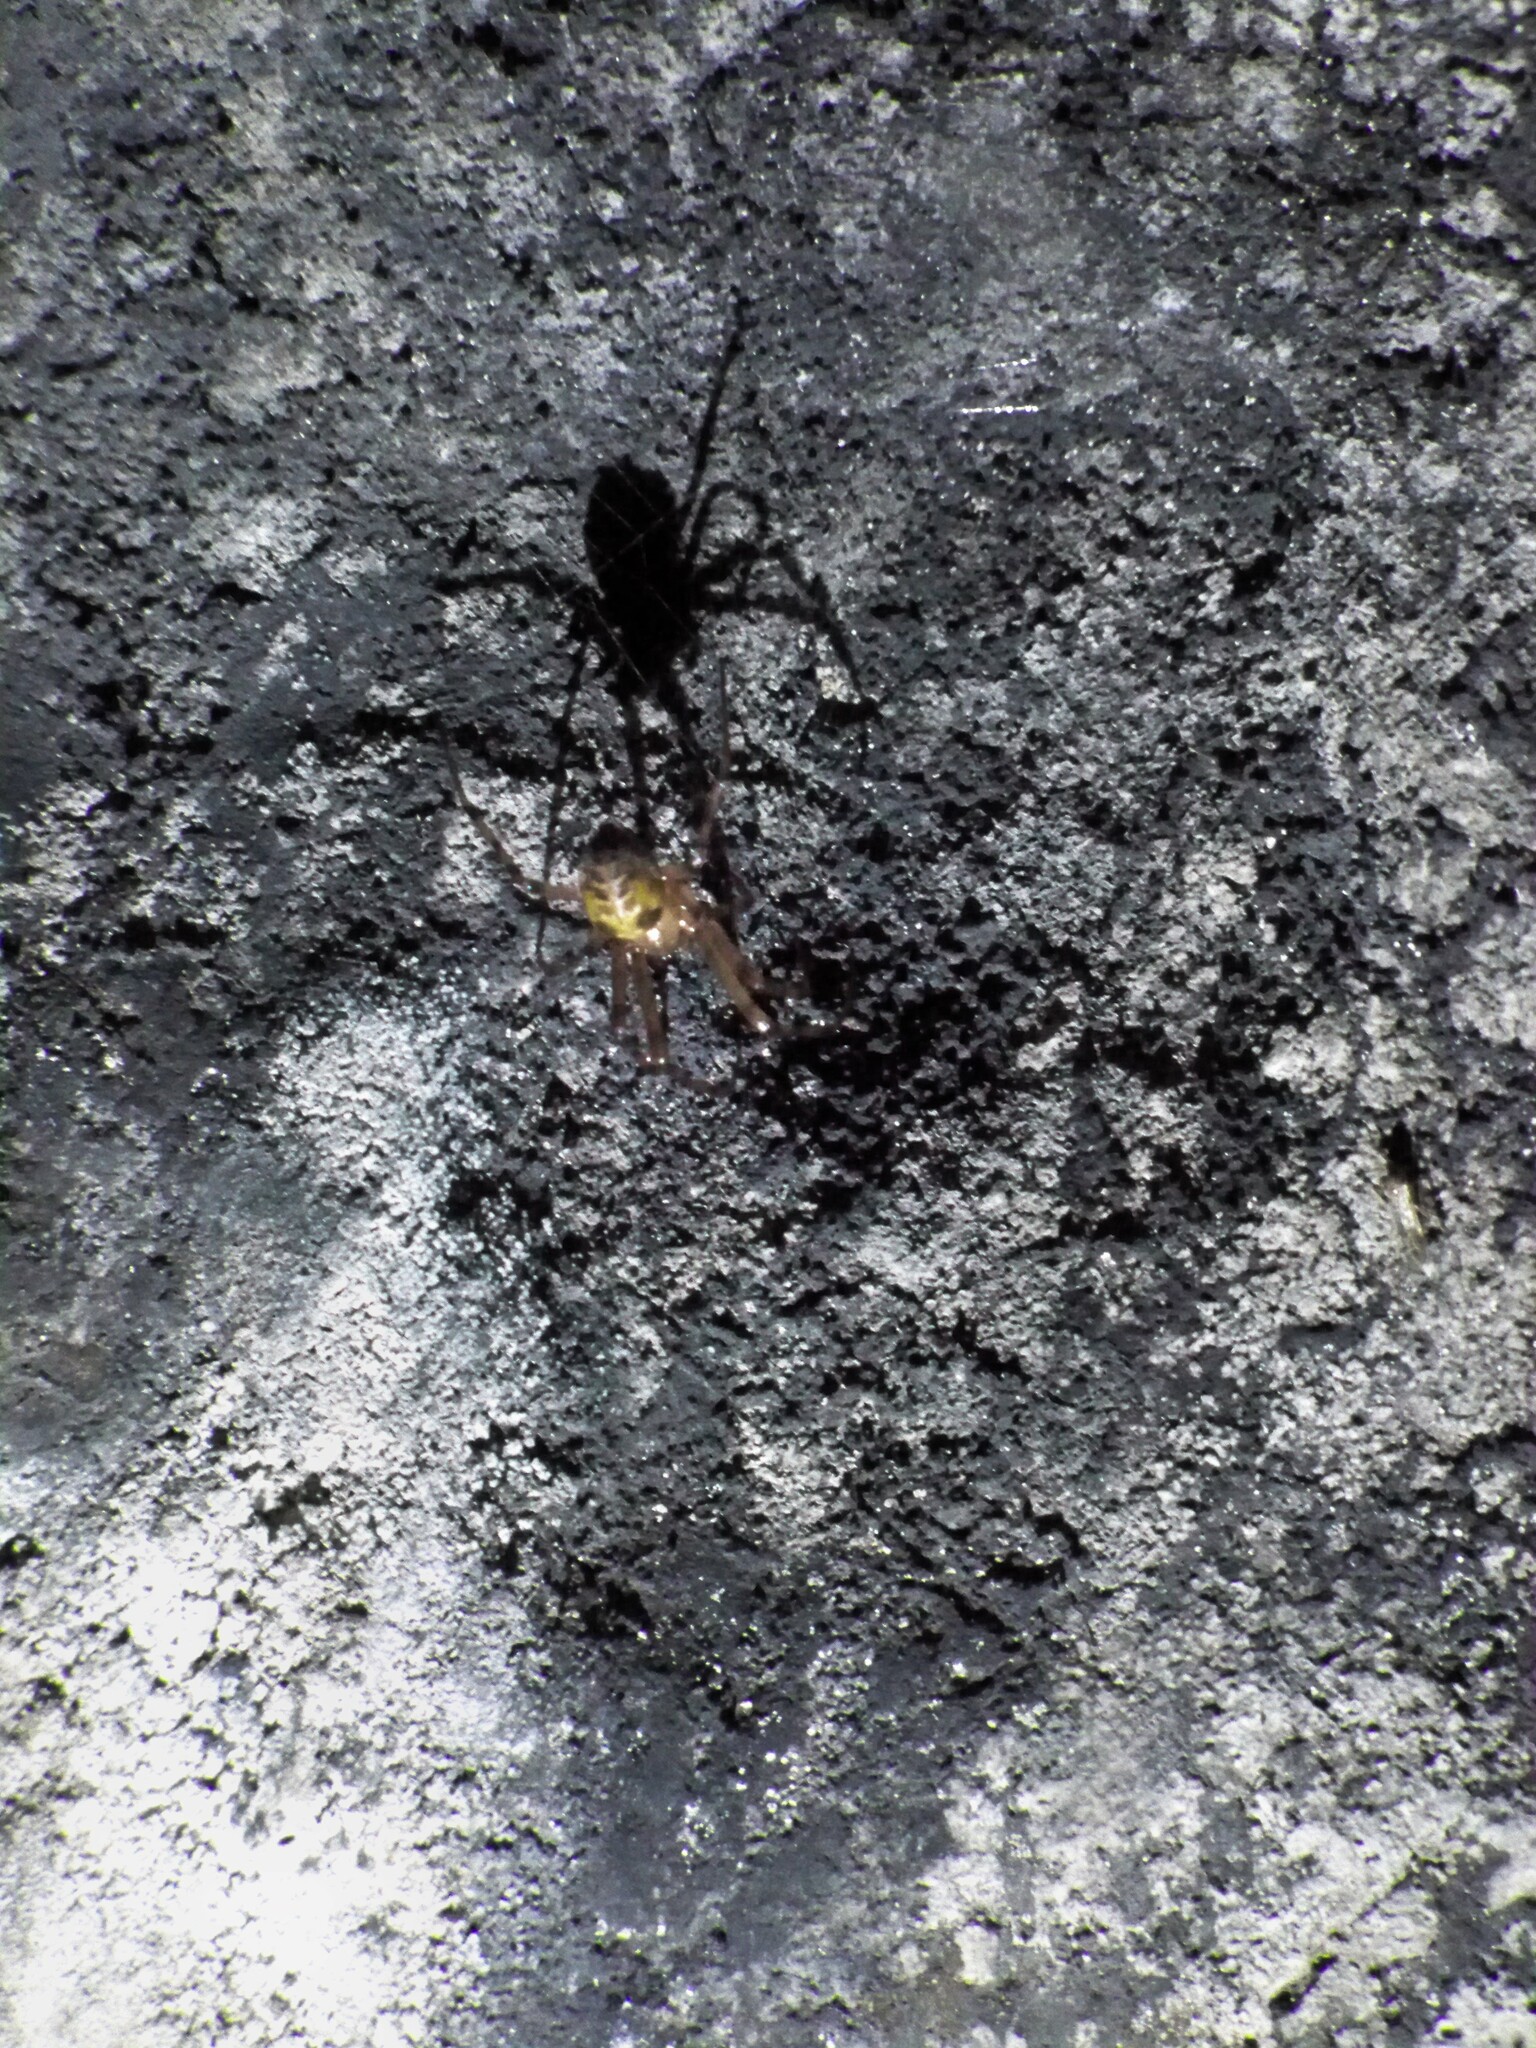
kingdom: Animalia
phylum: Arthropoda
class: Arachnida
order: Araneae
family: Tetragnathidae
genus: Meta
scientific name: Meta menardi
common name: Cave spider
